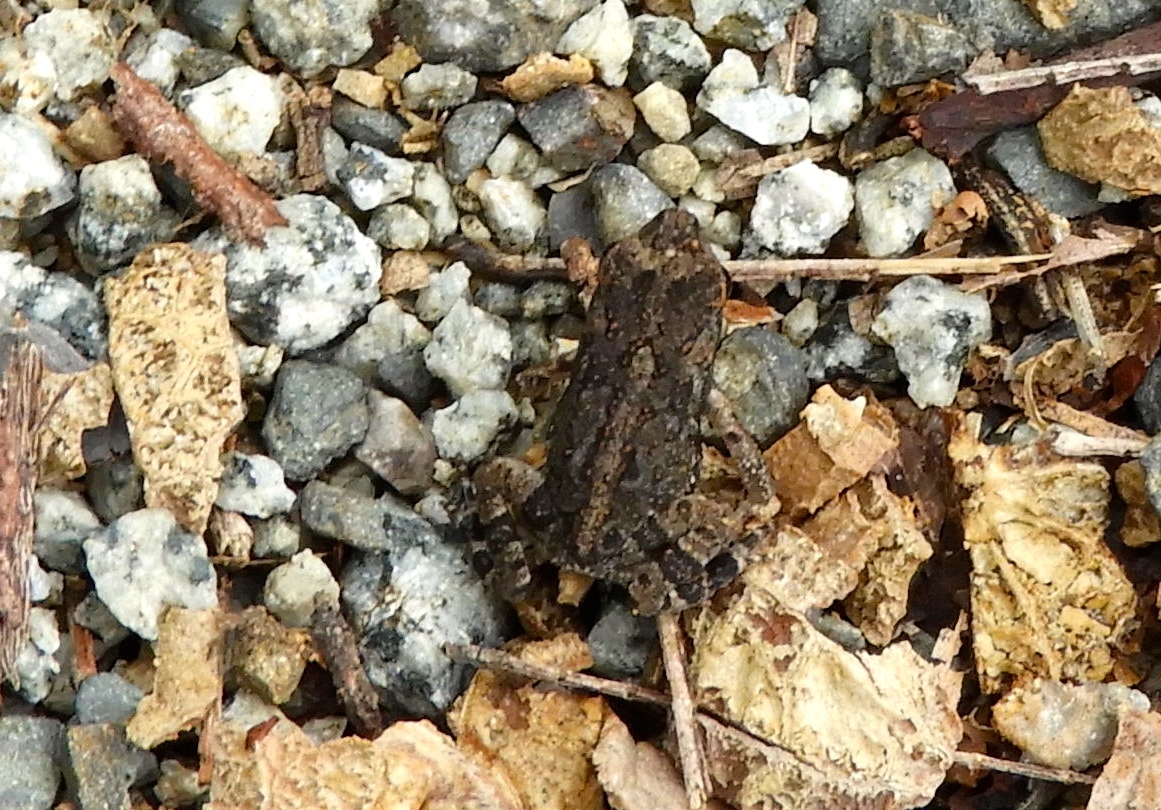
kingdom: Animalia
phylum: Chordata
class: Amphibia
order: Anura
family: Bufonidae
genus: Incilius
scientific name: Incilius marmoreus
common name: Marbled toad
